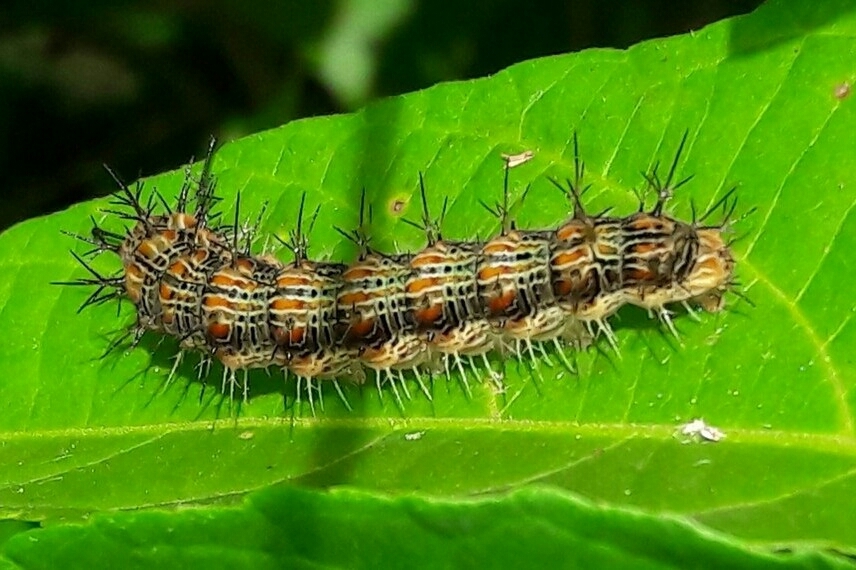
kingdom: Animalia
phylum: Arthropoda
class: Insecta
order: Lepidoptera
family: Nymphalidae
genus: Hamadryas
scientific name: Hamadryas februa
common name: Gray cracker
